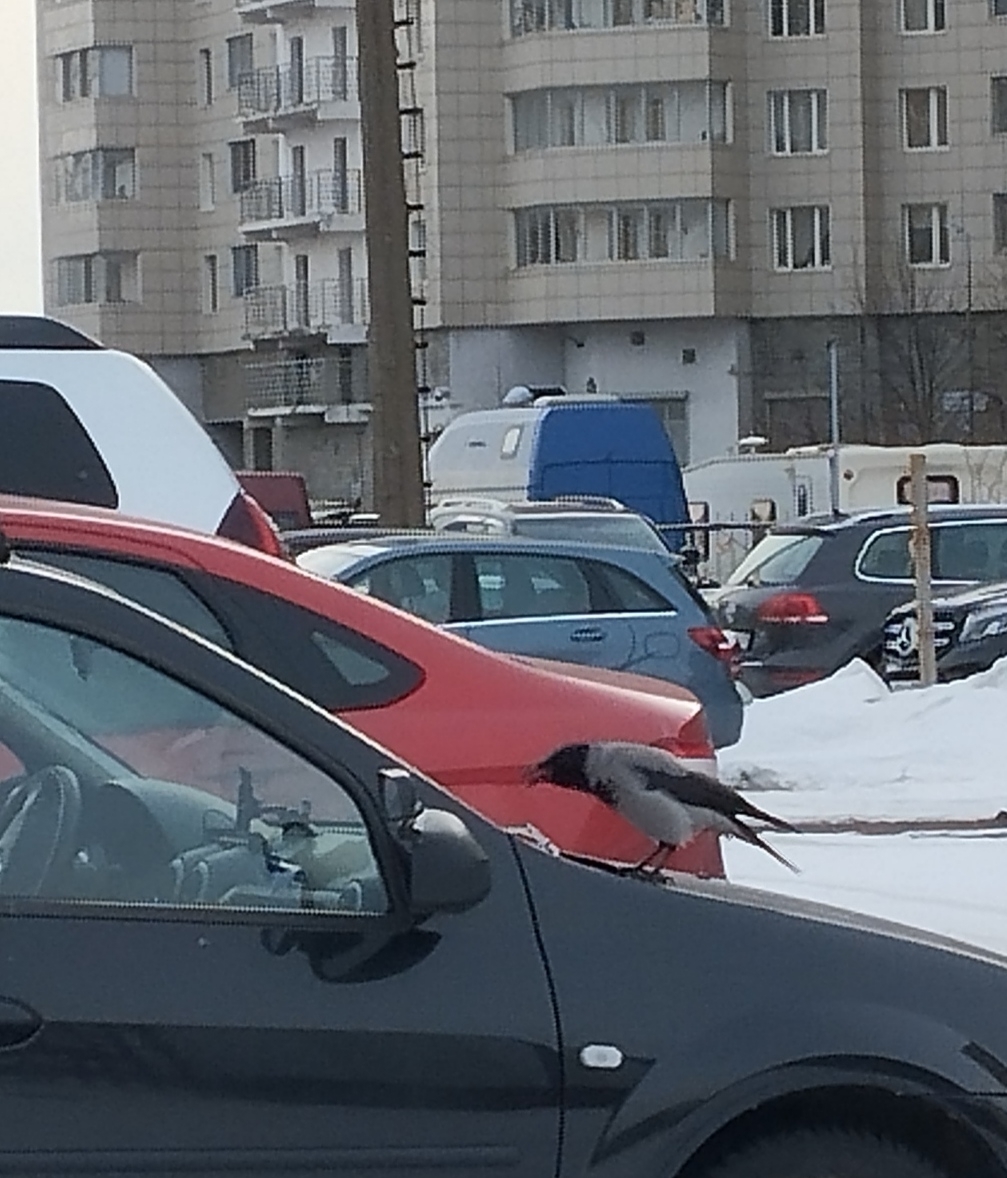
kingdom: Animalia
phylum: Chordata
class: Aves
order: Passeriformes
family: Corvidae
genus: Corvus
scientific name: Corvus cornix
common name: Hooded crow
